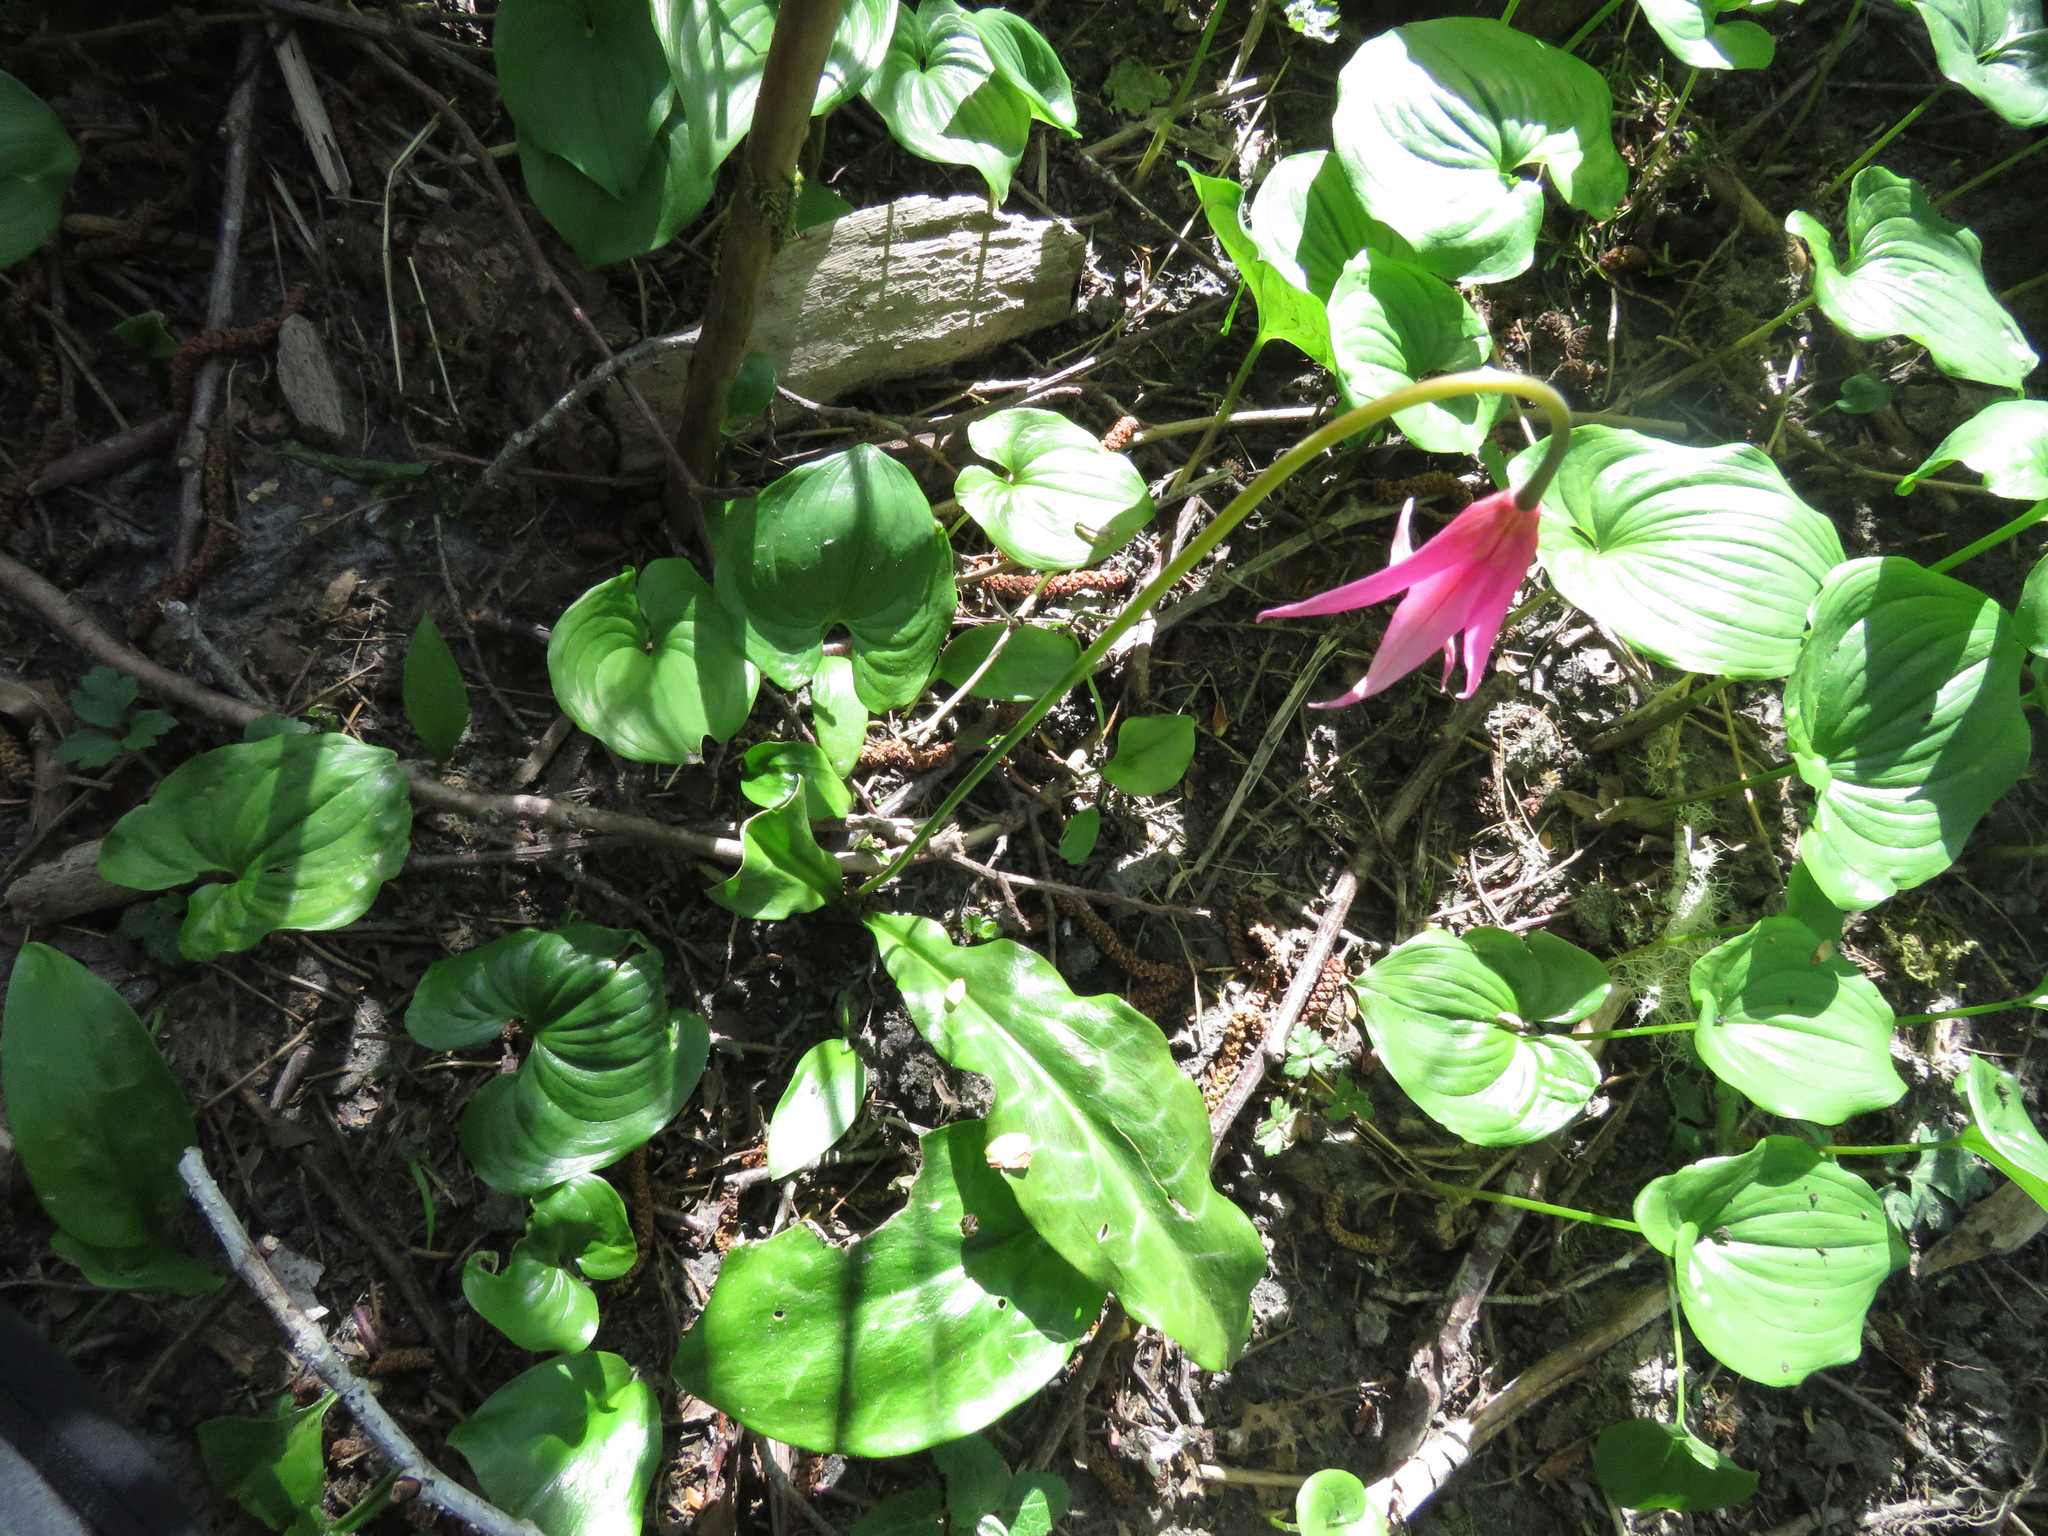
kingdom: Plantae
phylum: Tracheophyta
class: Liliopsida
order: Liliales
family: Liliaceae
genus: Erythronium
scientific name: Erythronium revolutum
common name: Pink fawn-lily
